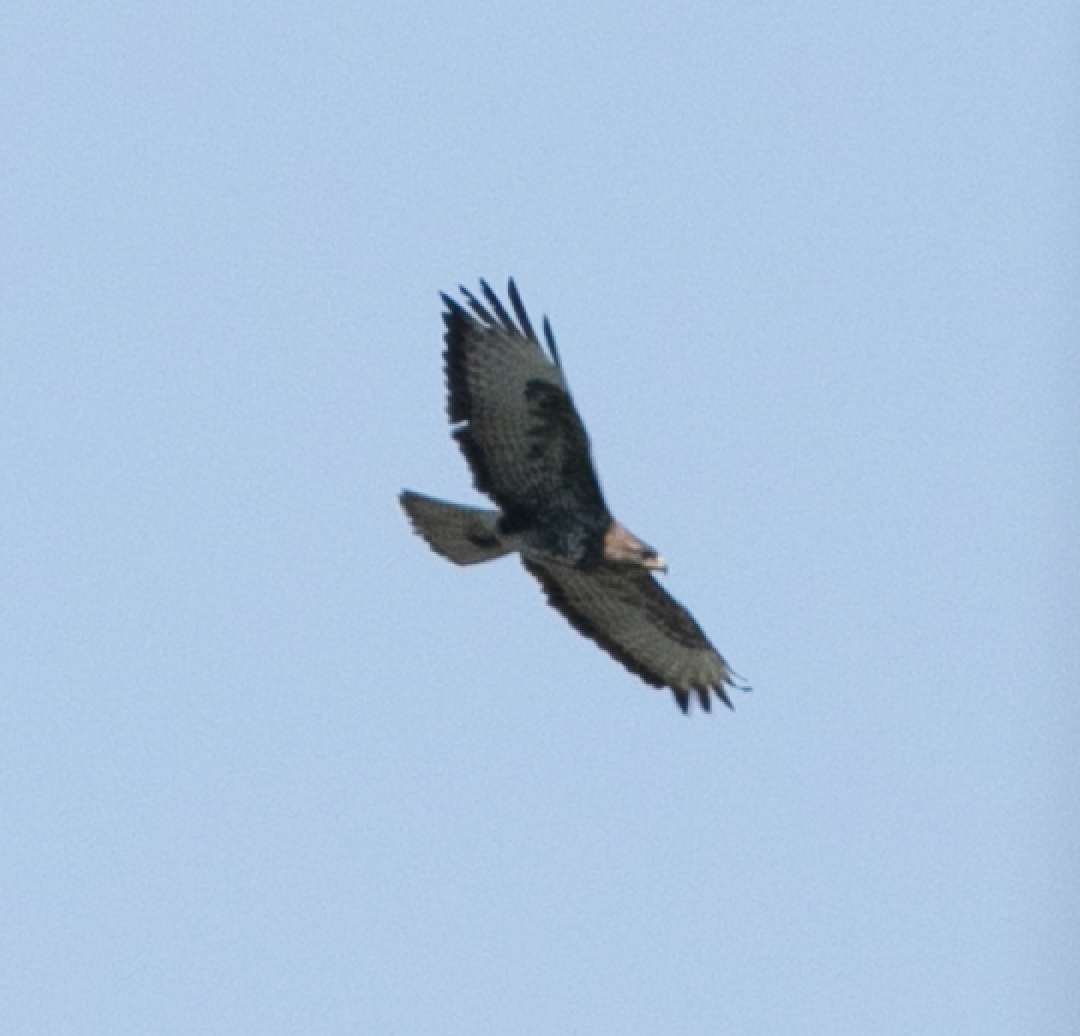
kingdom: Animalia
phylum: Chordata
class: Aves
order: Accipitriformes
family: Accipitridae
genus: Buteo
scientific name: Buteo buteo
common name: Common buzzard
